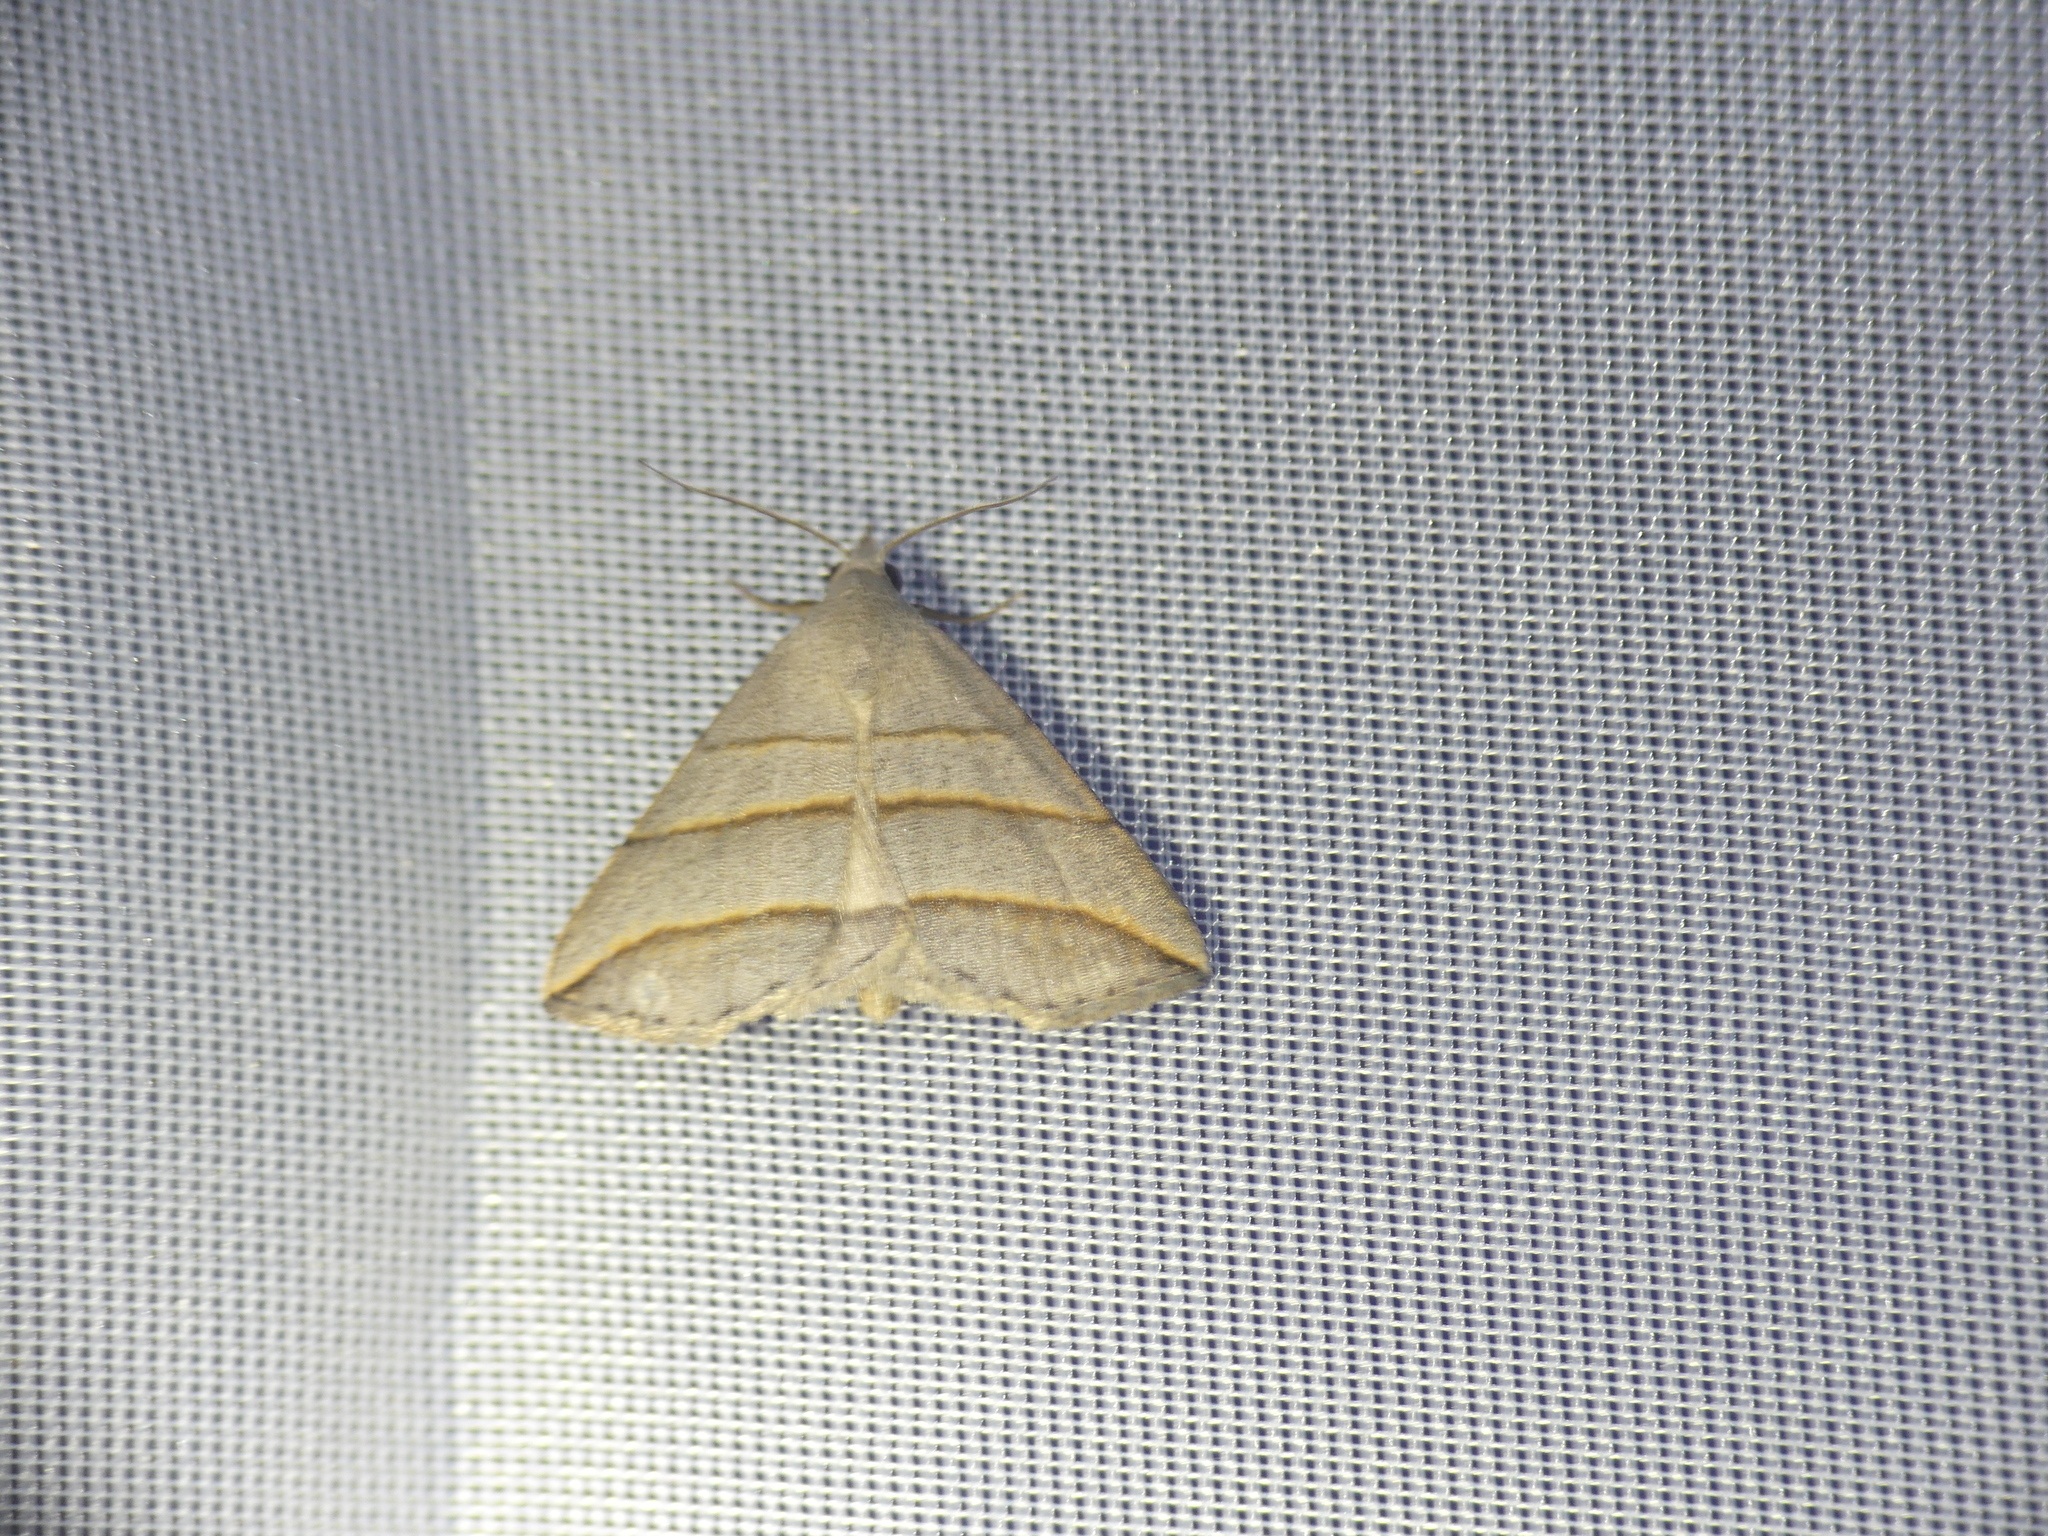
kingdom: Animalia
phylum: Arthropoda
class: Insecta
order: Lepidoptera
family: Erebidae
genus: Colobochyla
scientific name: Colobochyla salicalis
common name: Lesser belle
